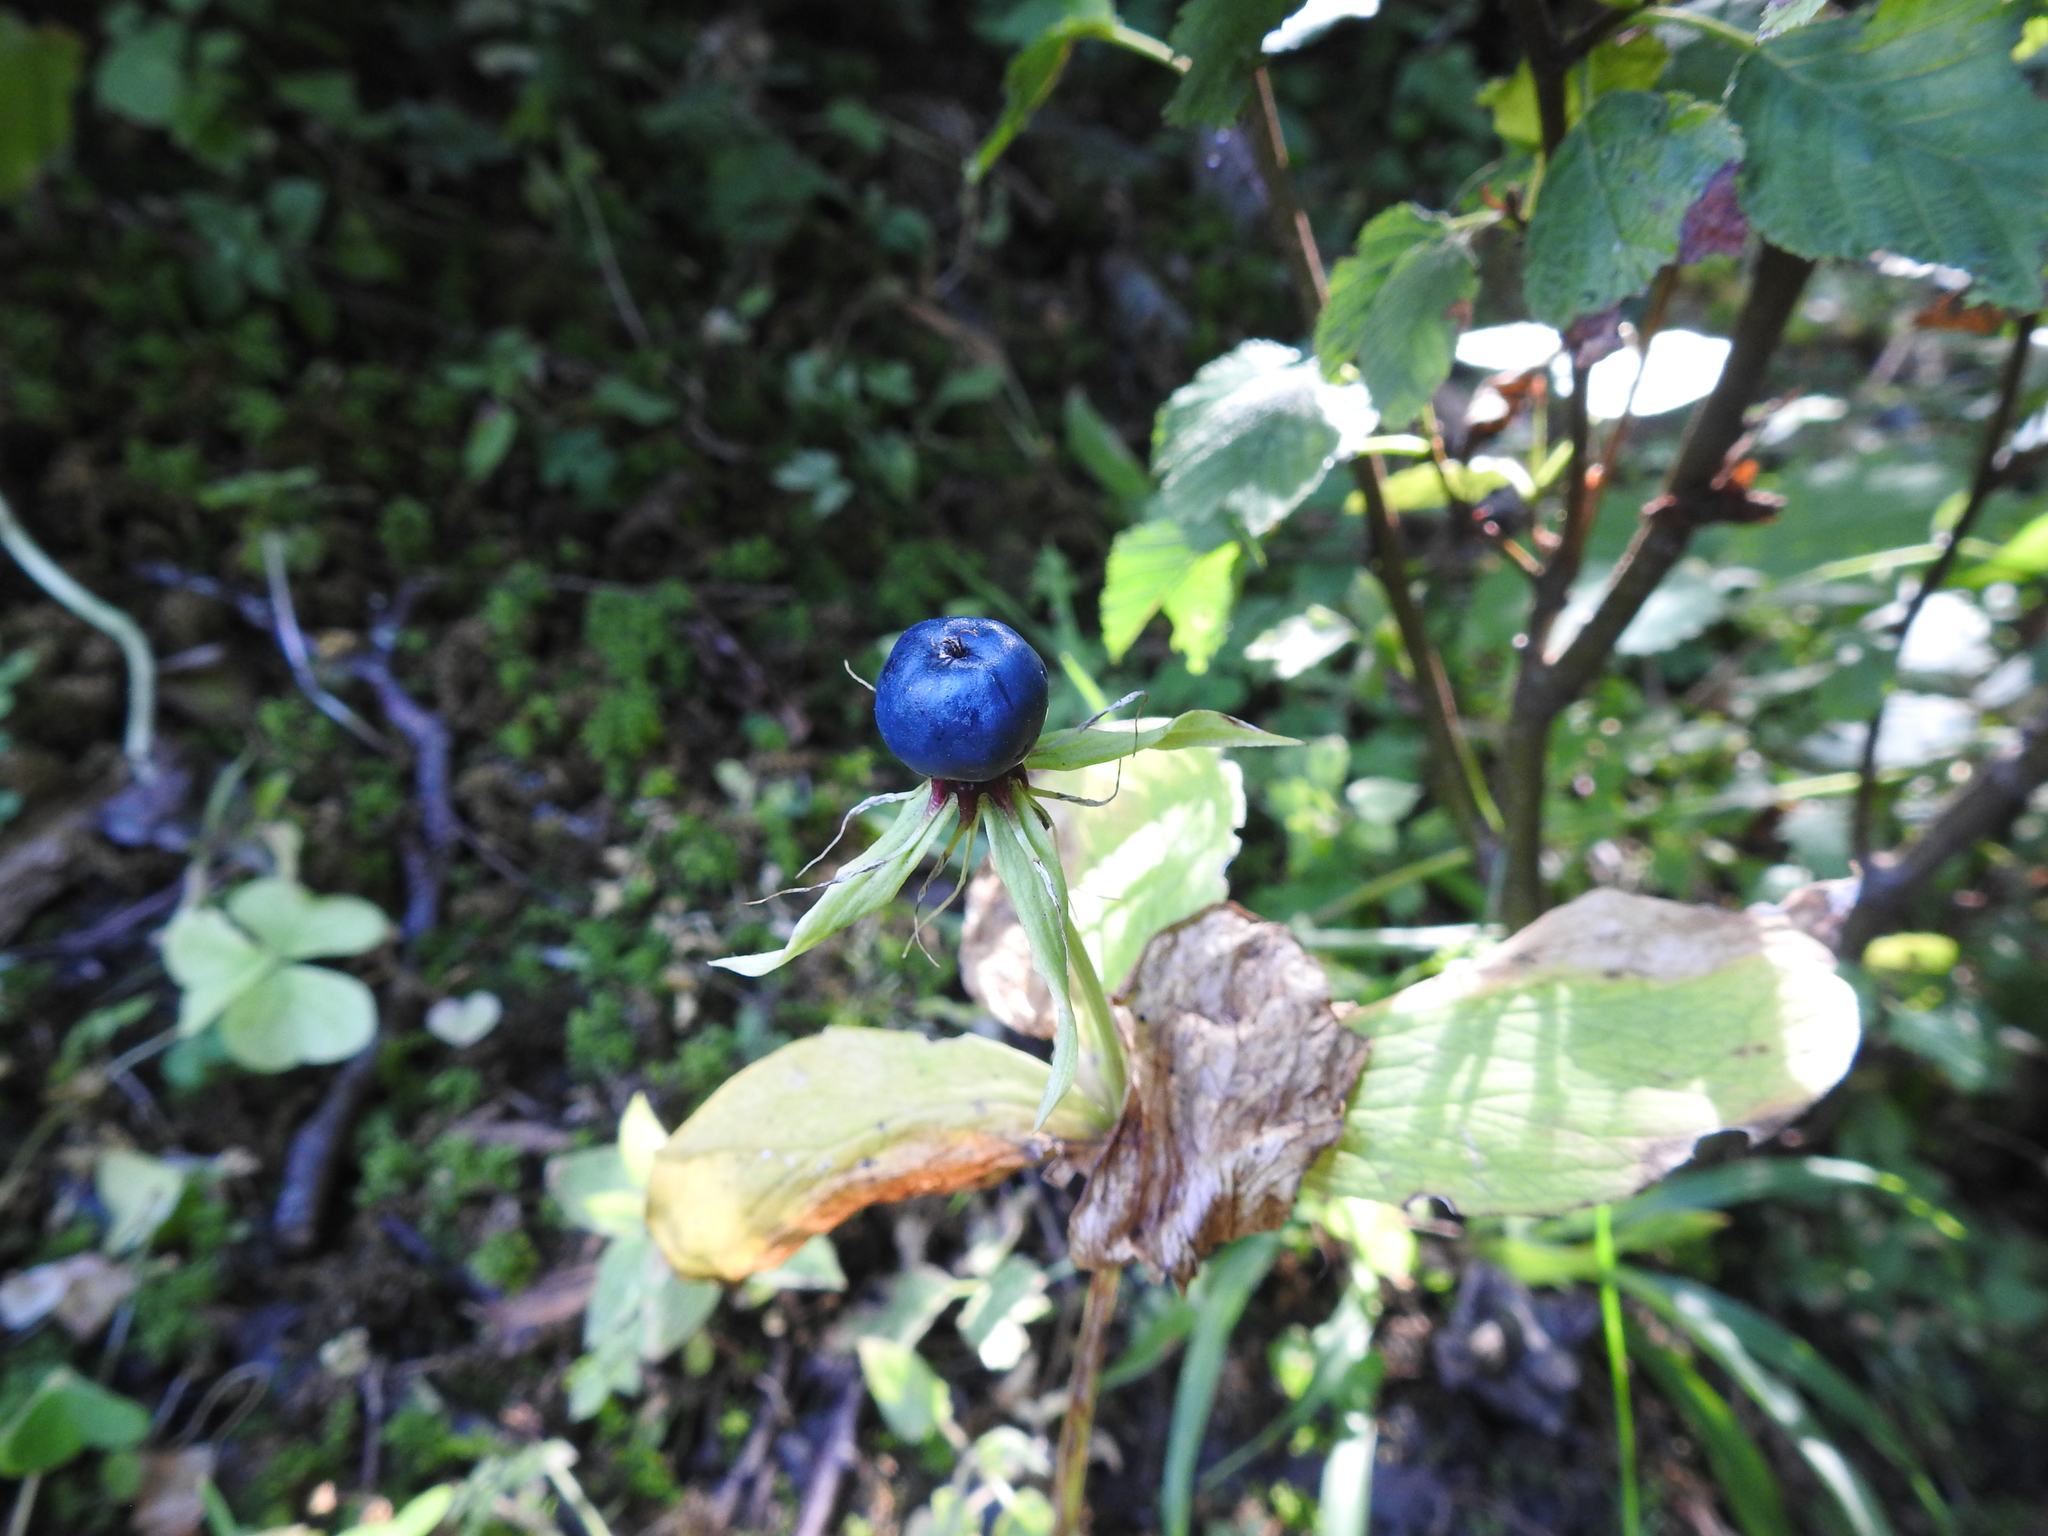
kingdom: Plantae
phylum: Tracheophyta
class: Liliopsida
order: Liliales
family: Melanthiaceae
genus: Paris
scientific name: Paris quadrifolia
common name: Herb-paris
